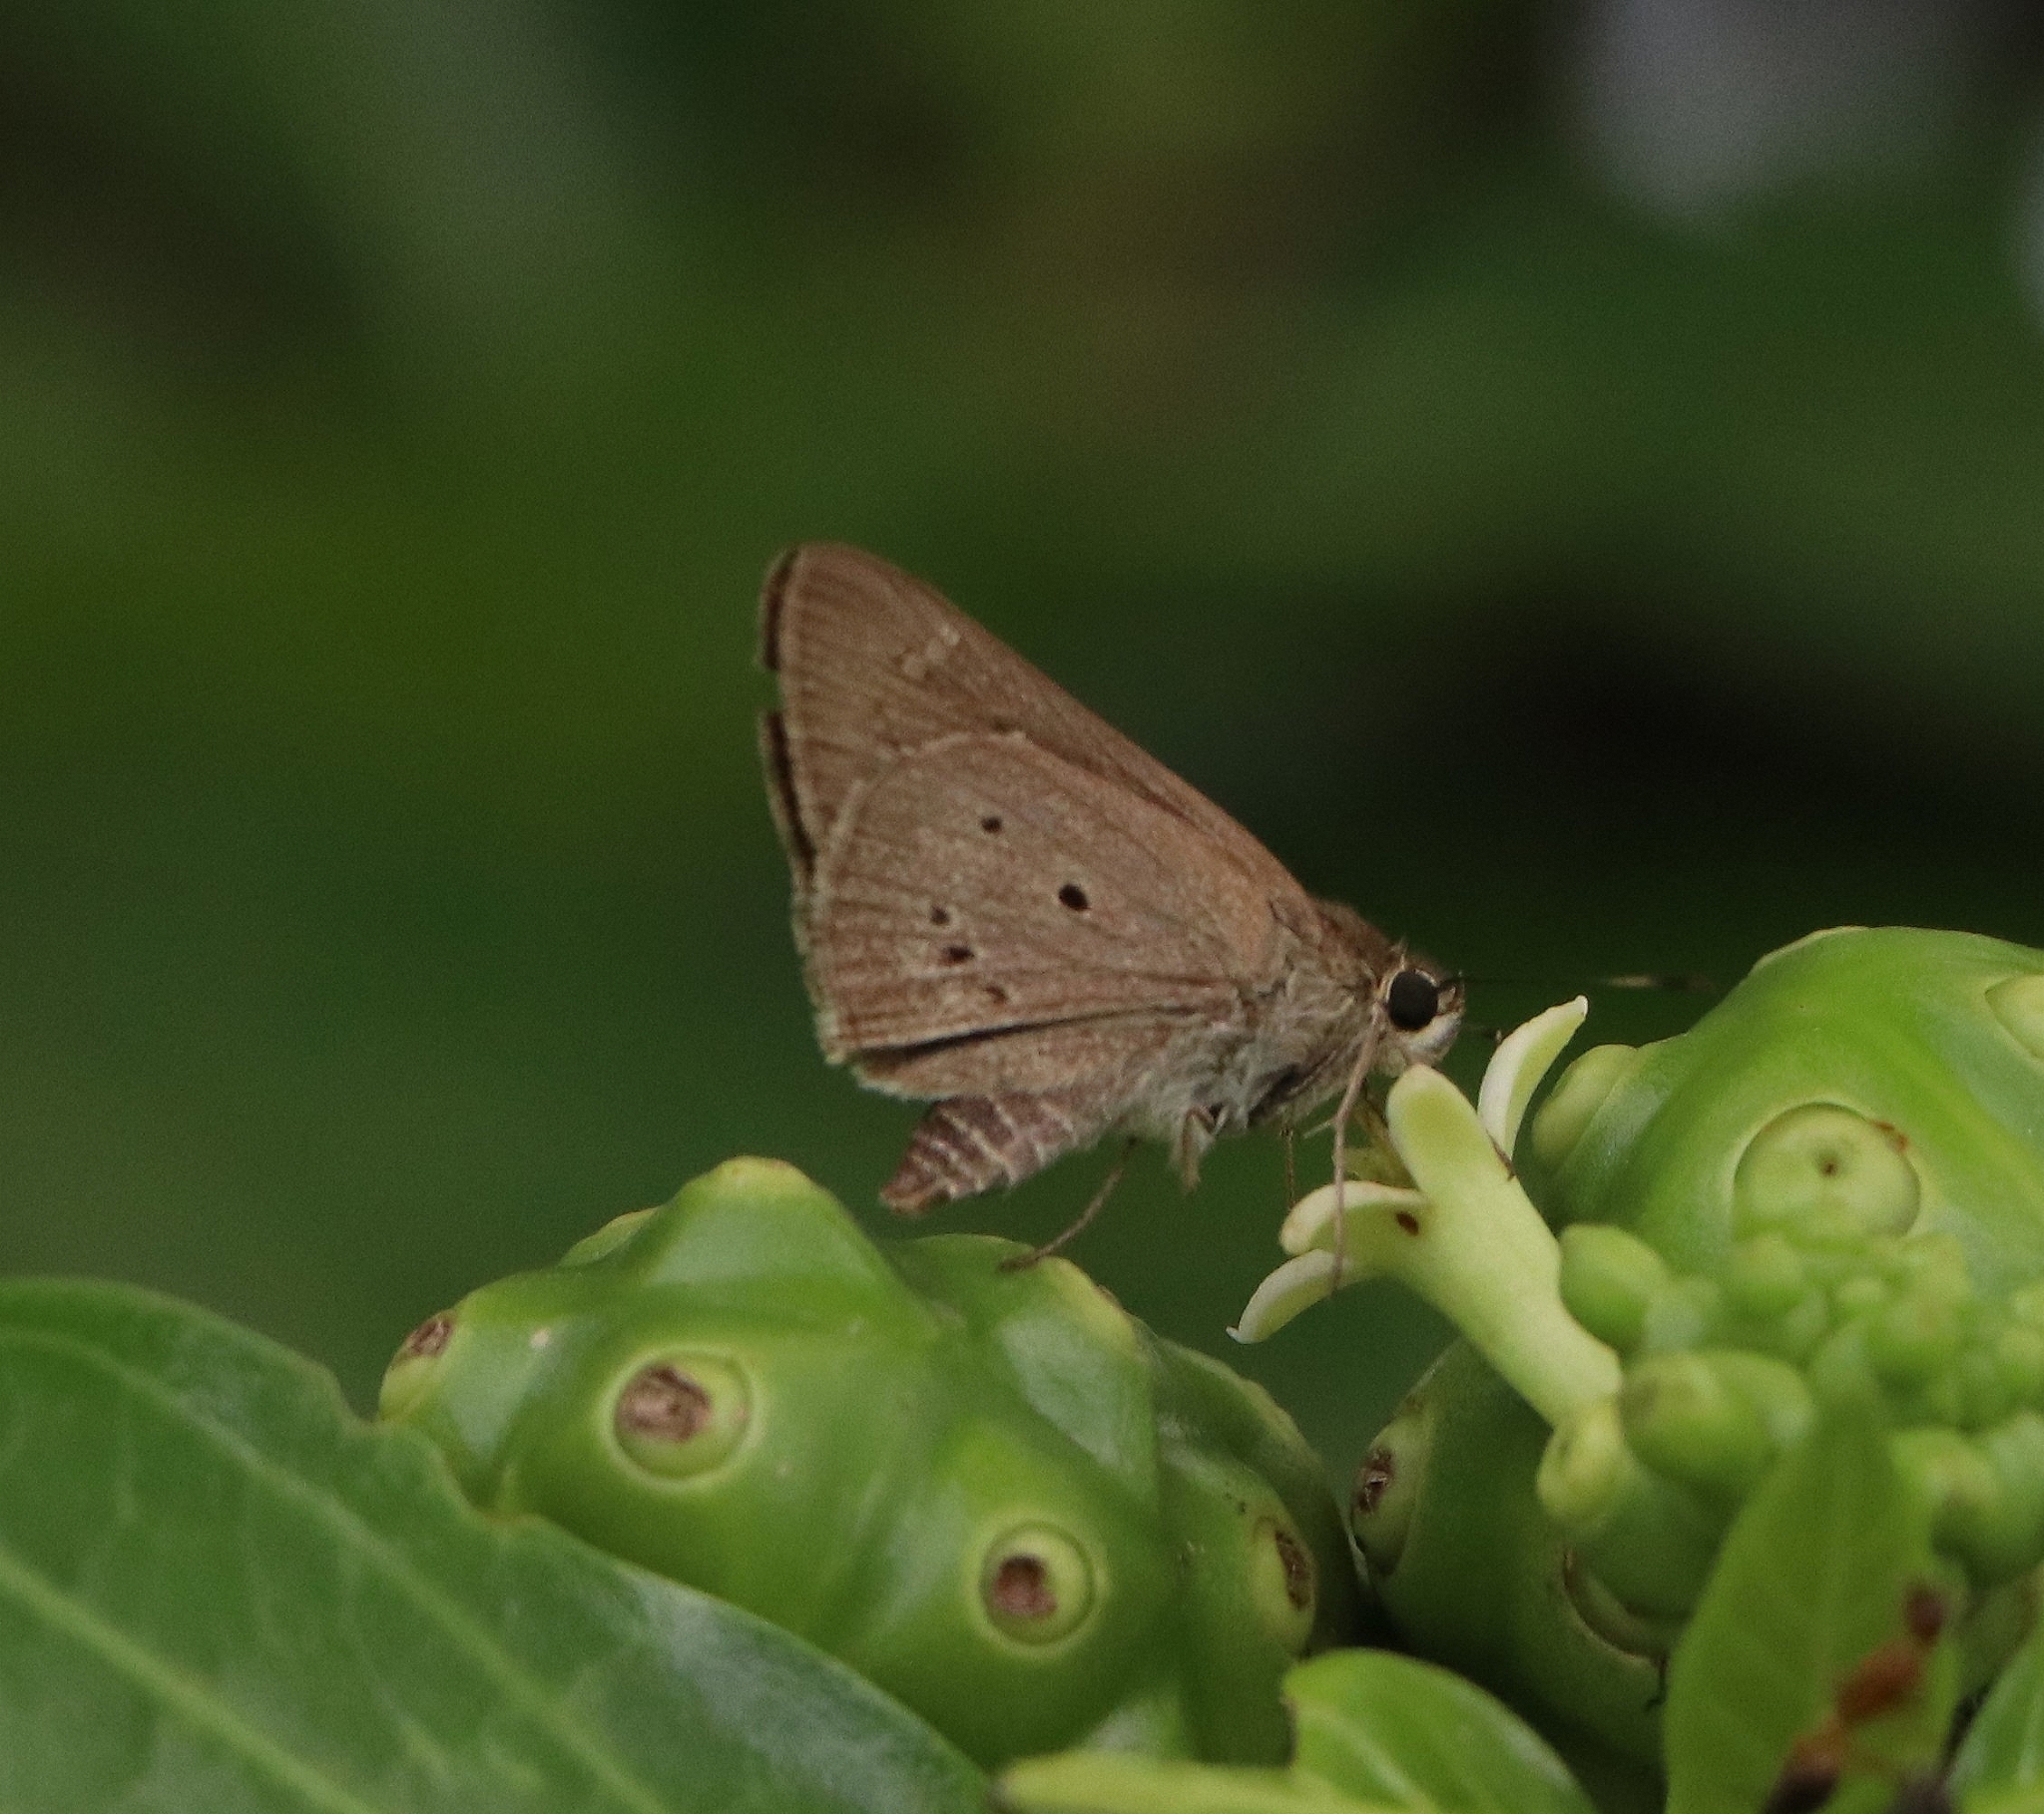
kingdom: Animalia
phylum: Arthropoda
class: Insecta
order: Lepidoptera
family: Hesperiidae
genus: Suastus
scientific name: Suastus gremius
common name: Indian palm bob
